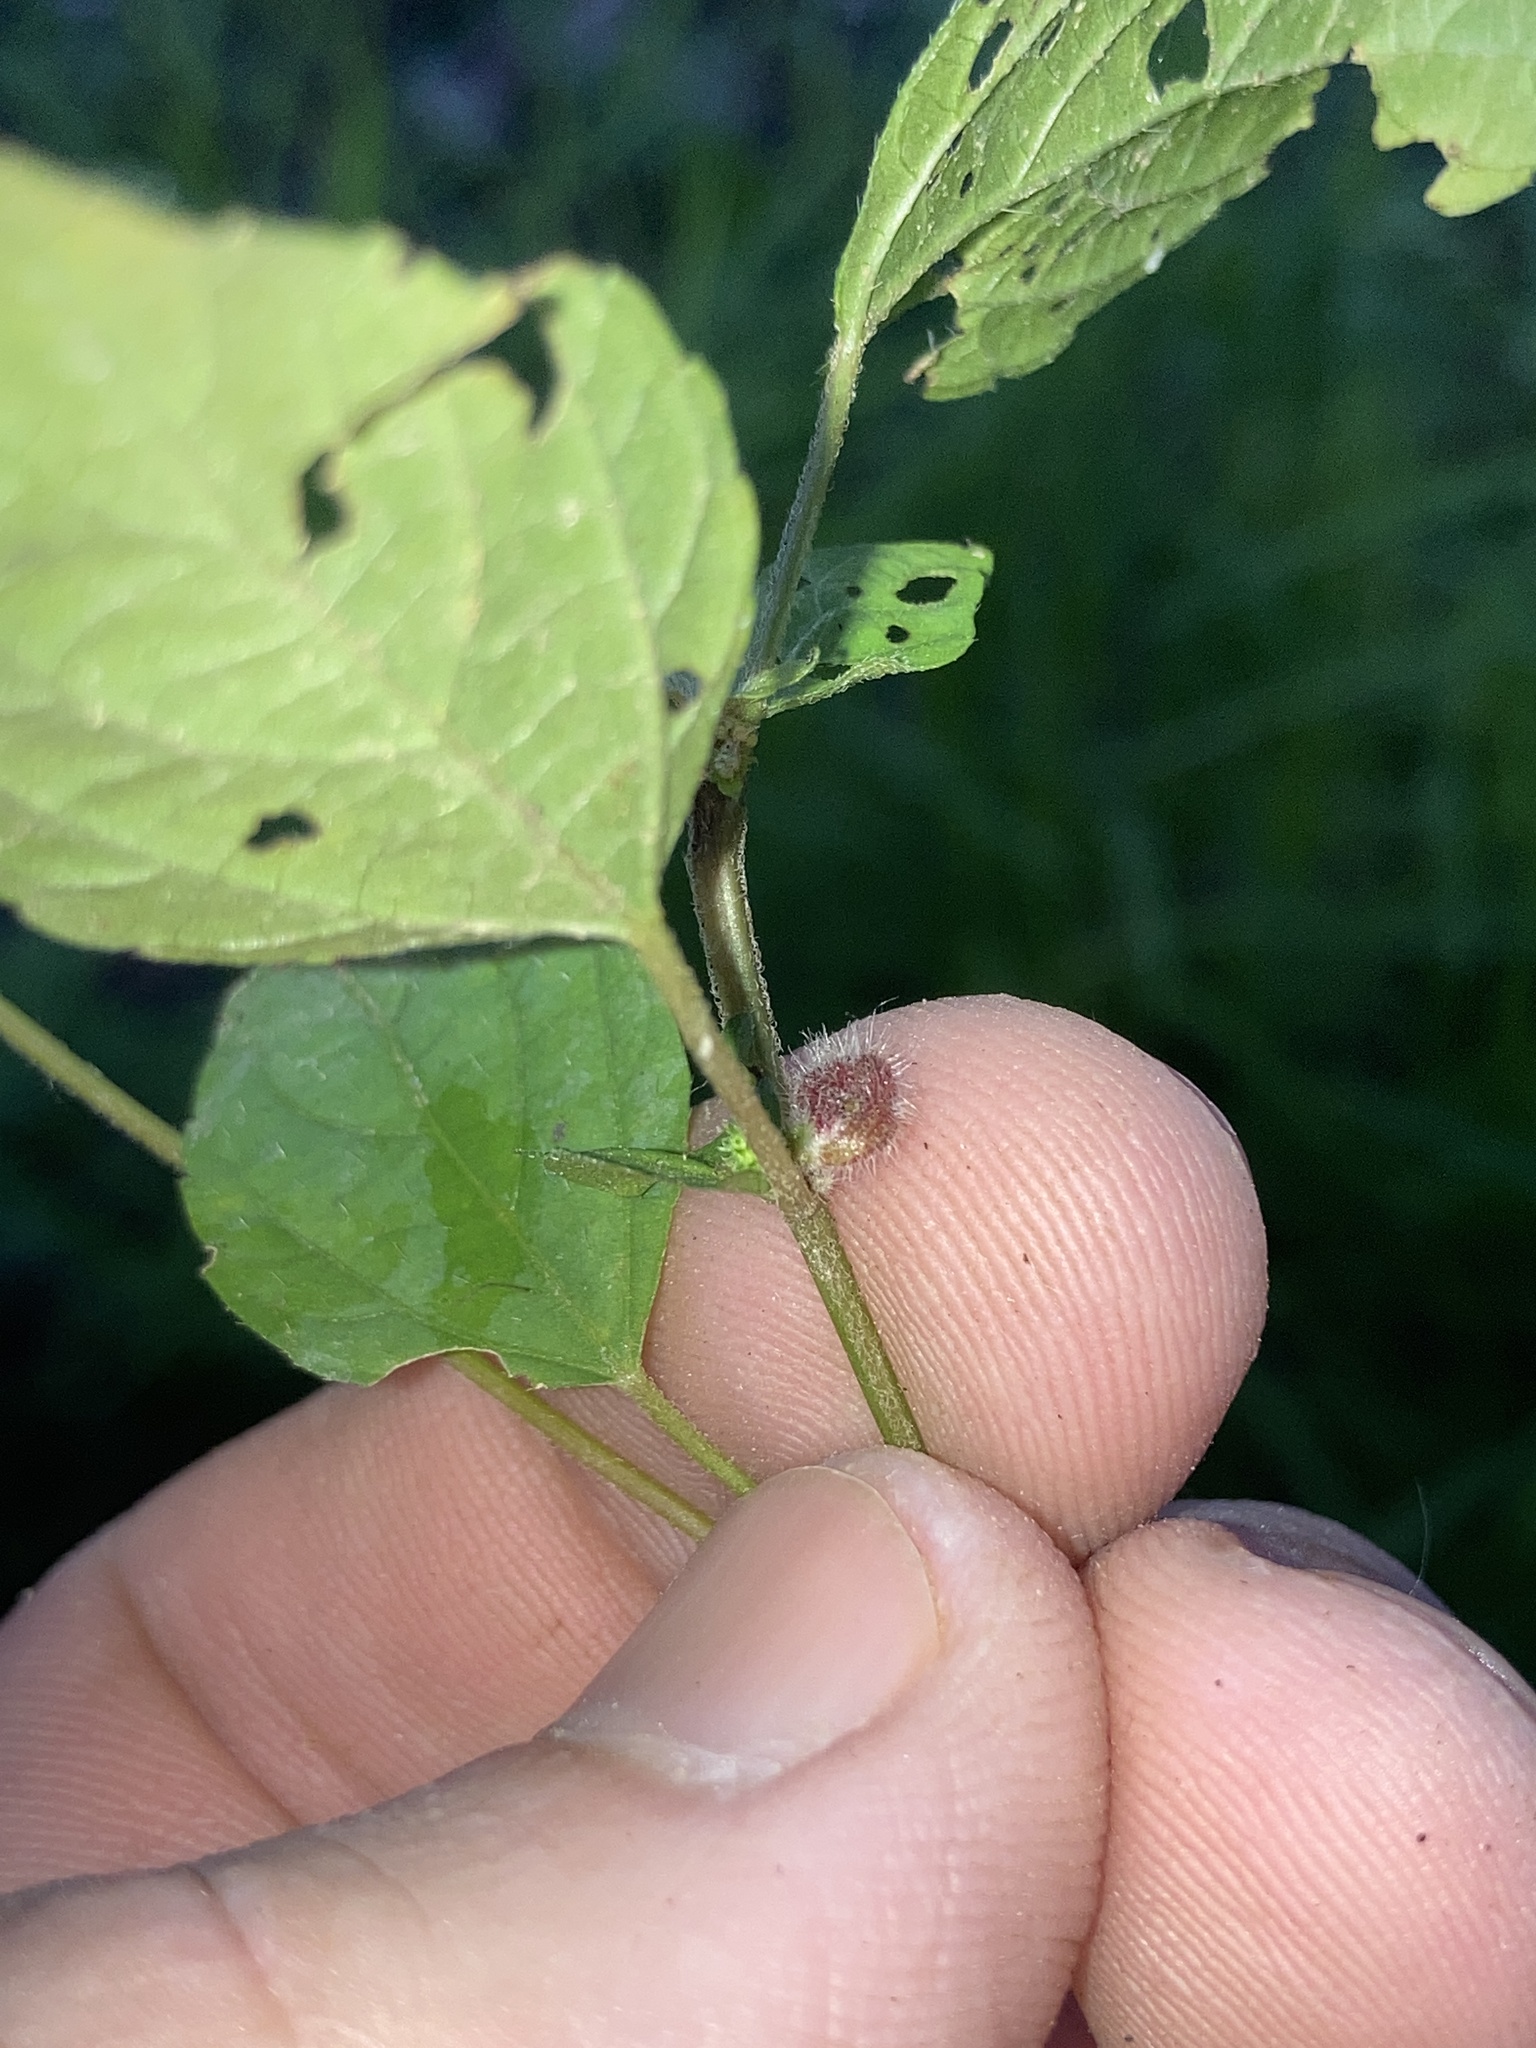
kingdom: Animalia
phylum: Arthropoda
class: Insecta
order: Diptera
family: Cecidomyiidae
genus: Resseliella
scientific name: Resseliella globosa
